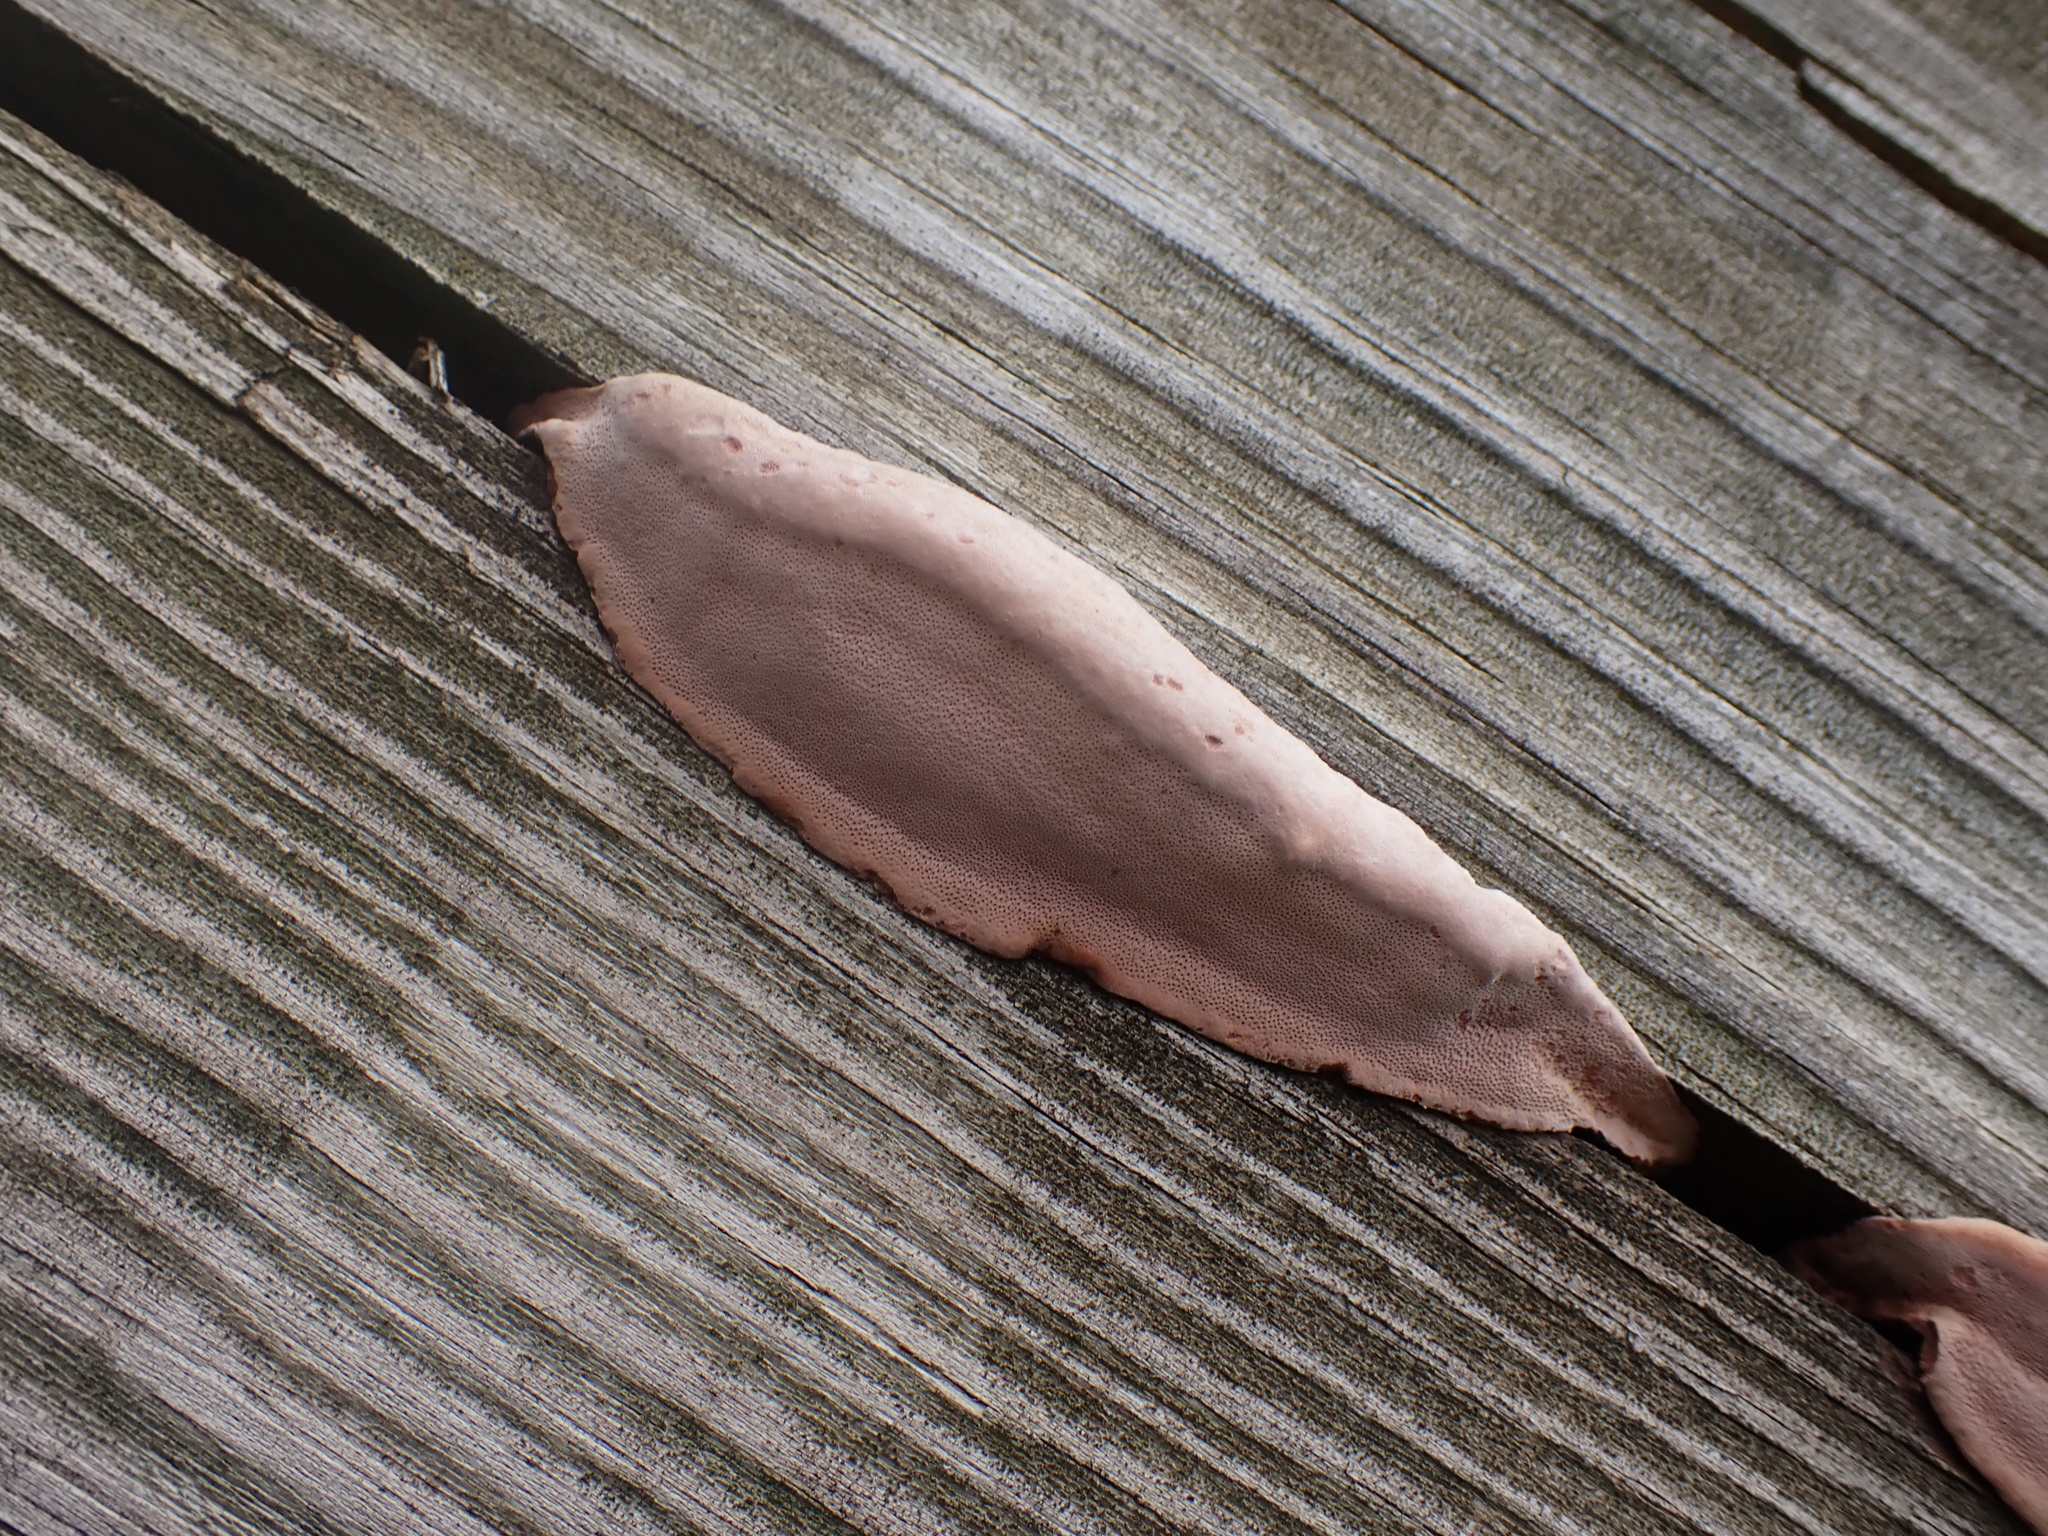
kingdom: Fungi
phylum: Basidiomycota
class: Agaricomycetes
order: Polyporales
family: Fomitopsidaceae
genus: Rhodofomes
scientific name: Rhodofomes cajanderi
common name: Rosy conk
